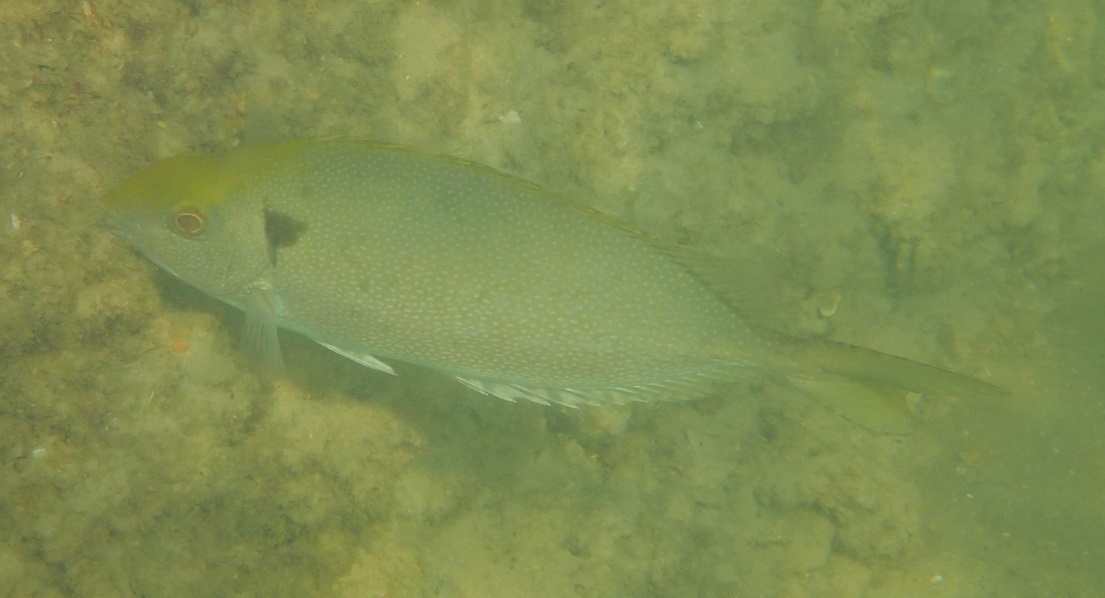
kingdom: Animalia
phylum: Chordata
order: Perciformes
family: Siganidae
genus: Siganus
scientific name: Siganus fuscescens
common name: Dusky rabbitfish
